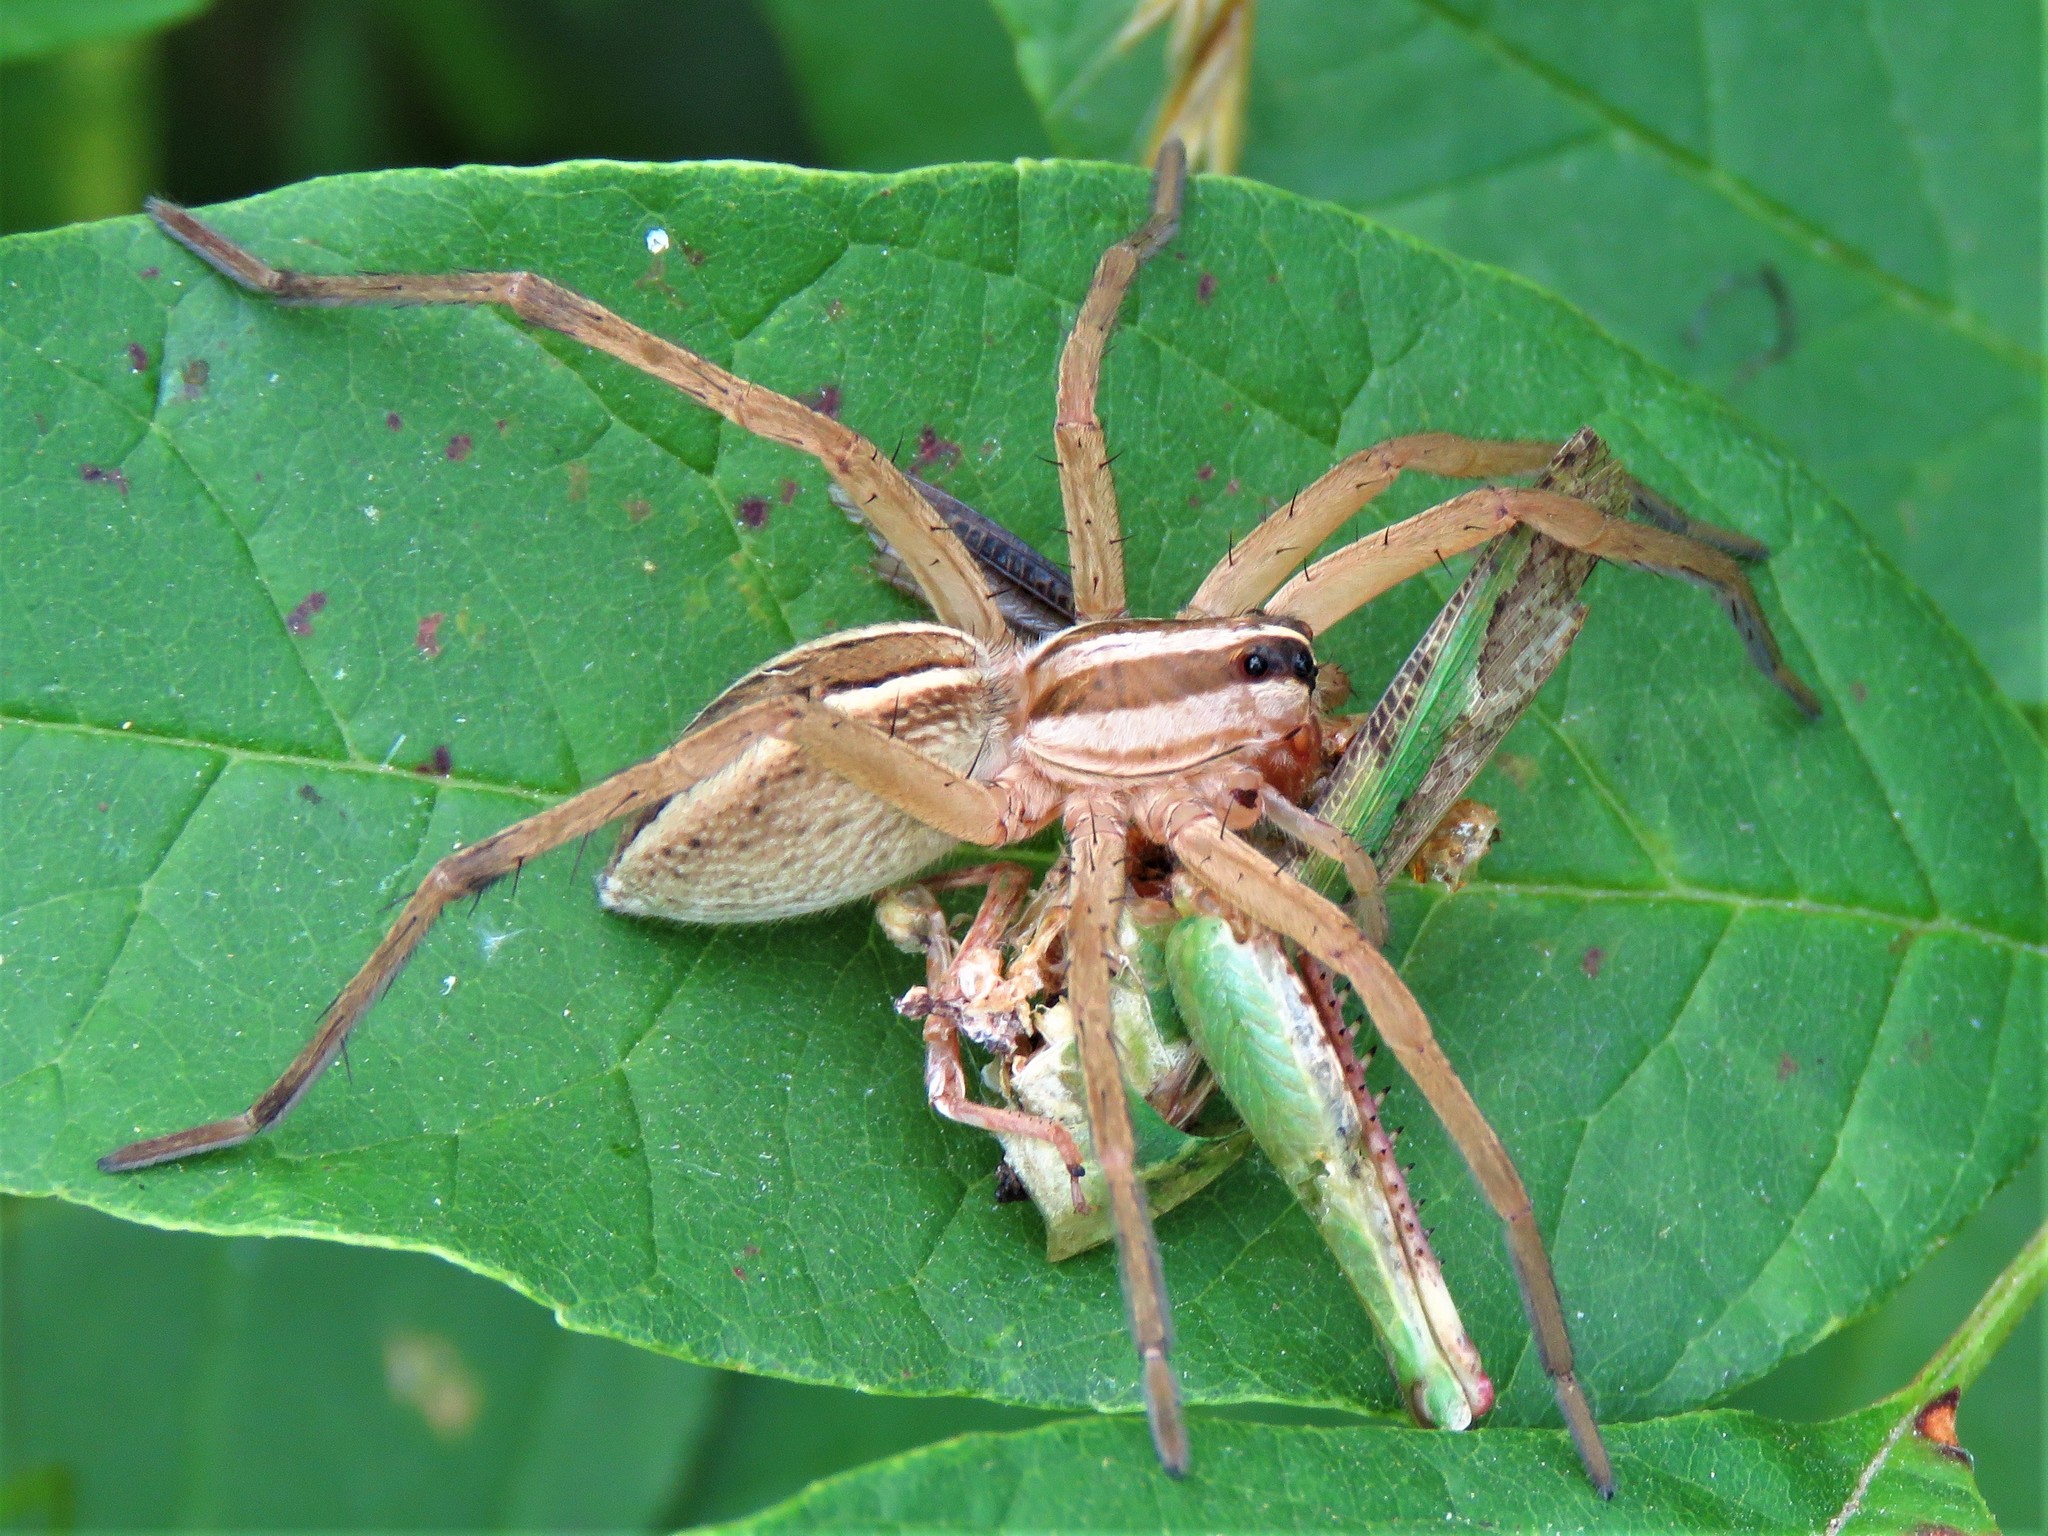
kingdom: Animalia
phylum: Arthropoda
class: Arachnida
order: Araneae
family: Lycosidae
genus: Rabidosa
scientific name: Rabidosa rabida
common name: Rabid wolf spider
